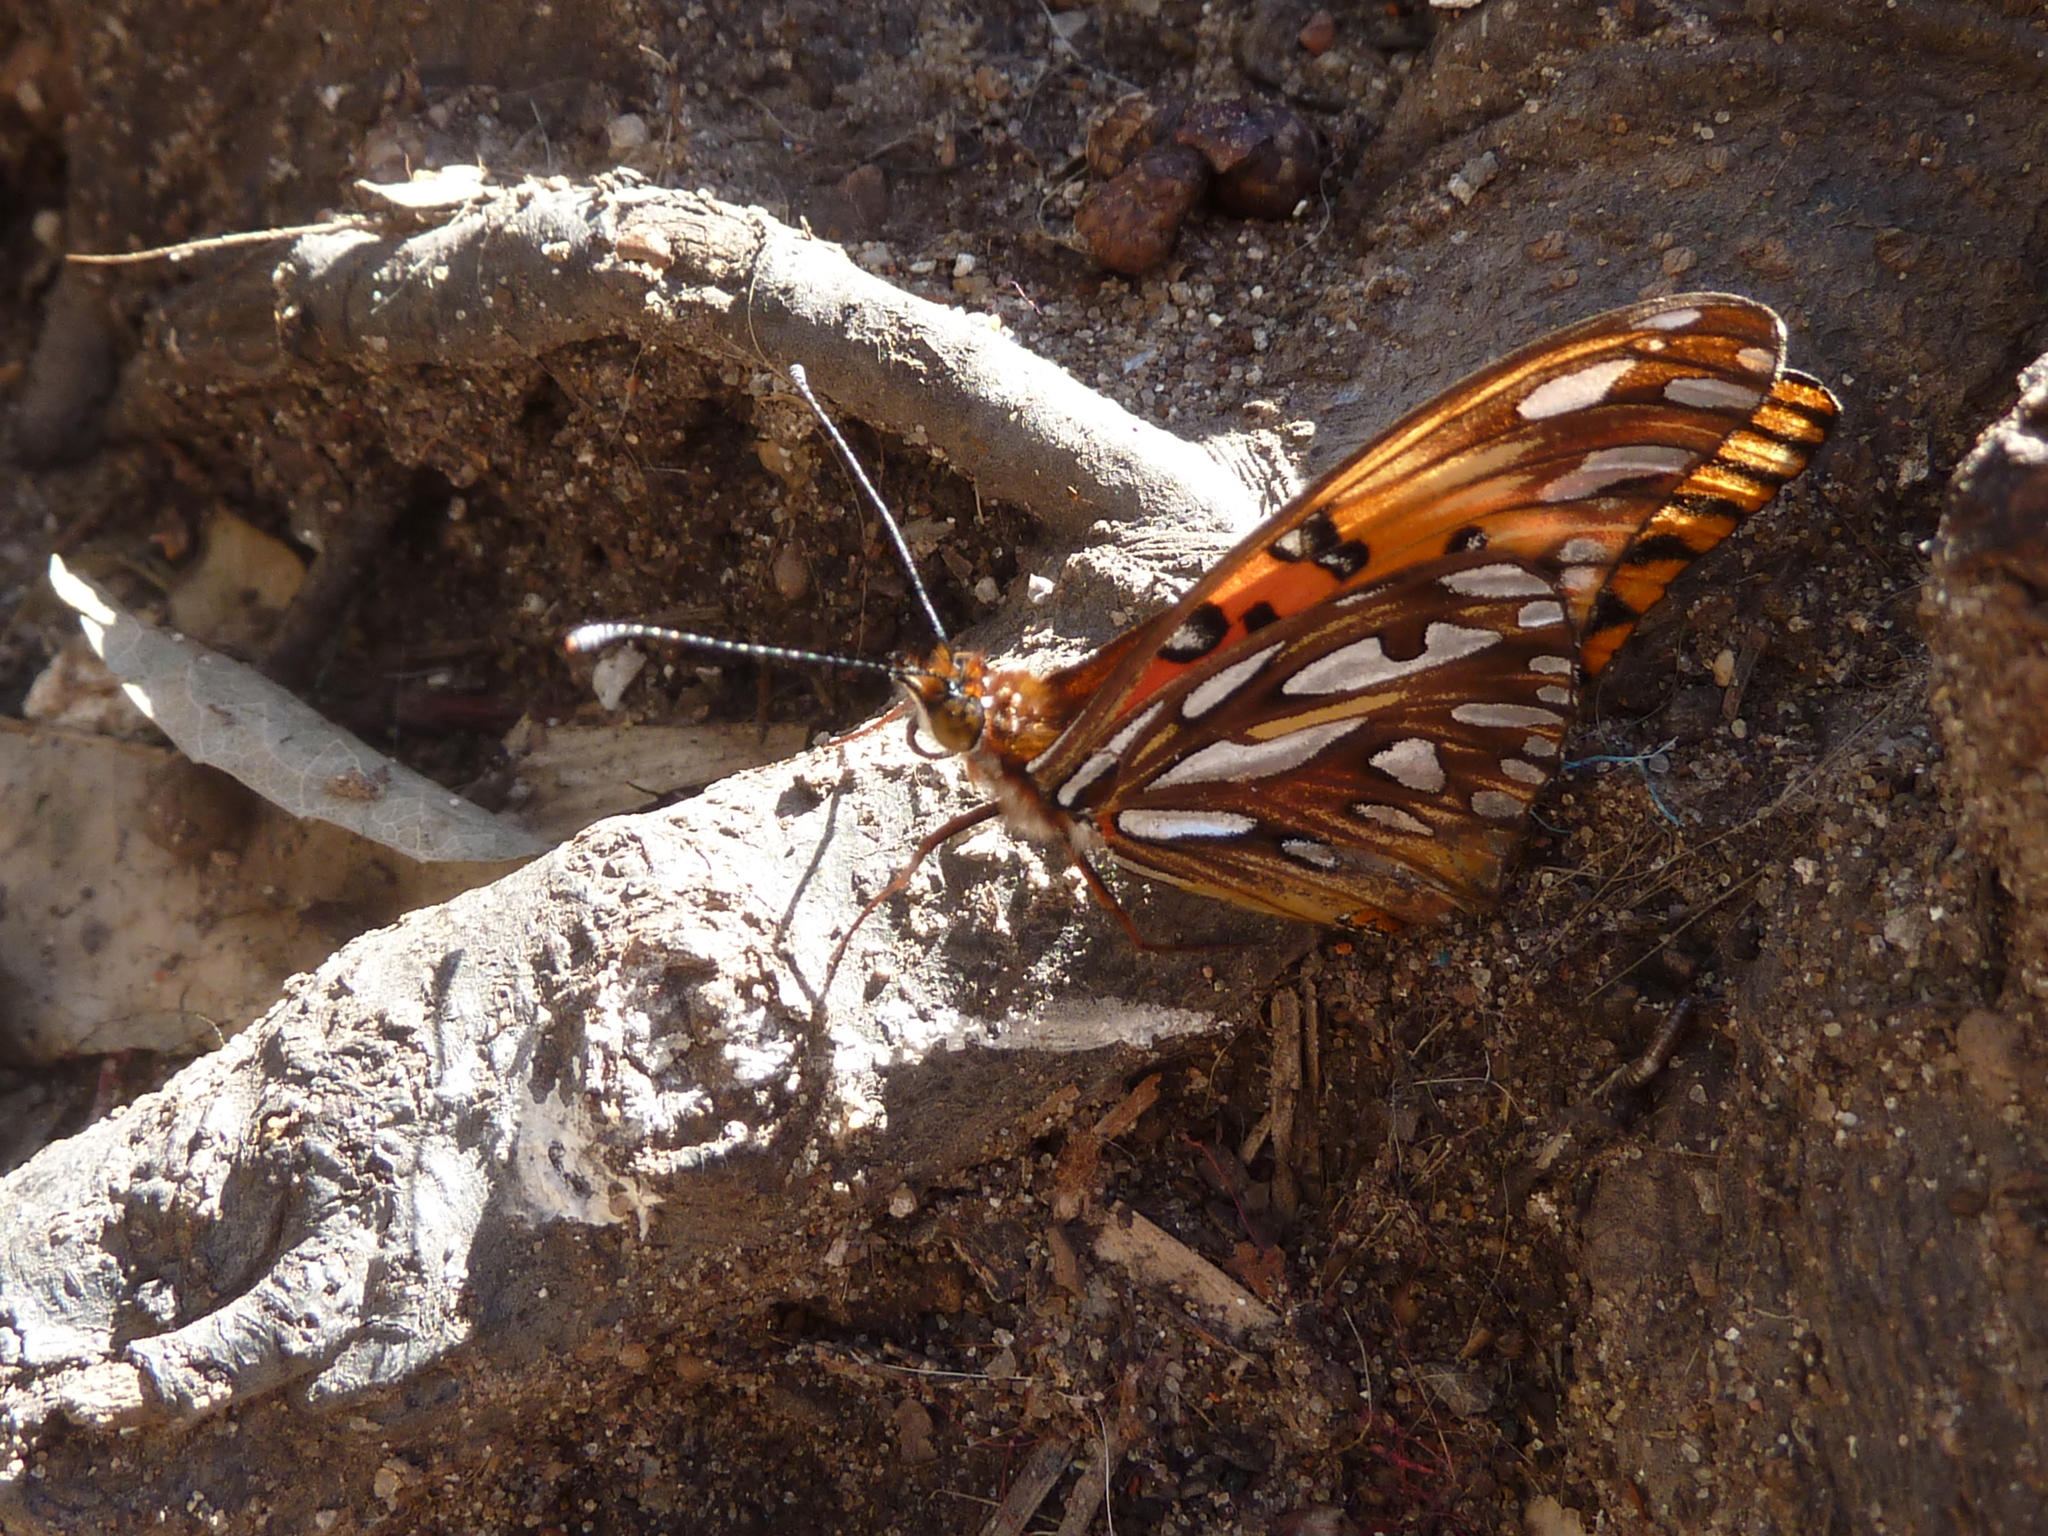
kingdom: Animalia
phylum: Arthropoda
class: Insecta
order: Lepidoptera
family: Nymphalidae
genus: Dione
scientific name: Dione vanillae
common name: Gulf fritillary
